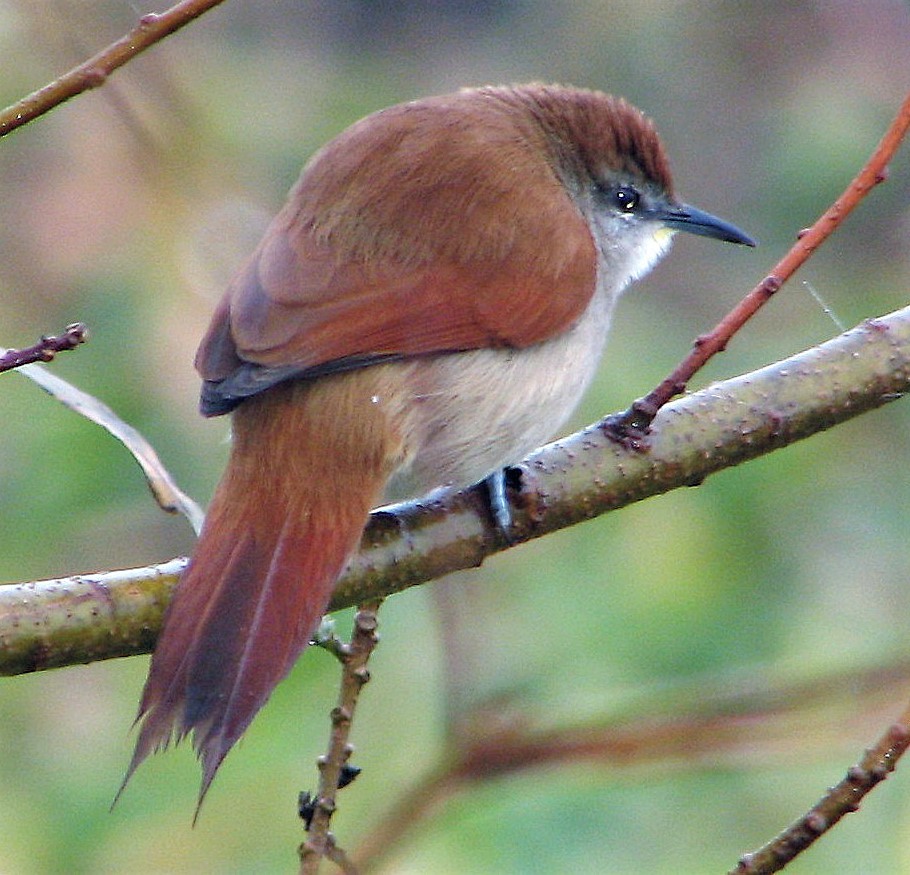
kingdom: Animalia
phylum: Chordata
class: Aves
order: Passeriformes
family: Furnariidae
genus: Certhiaxis
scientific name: Certhiaxis cinnamomeus
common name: Yellow-chinned spinetail
